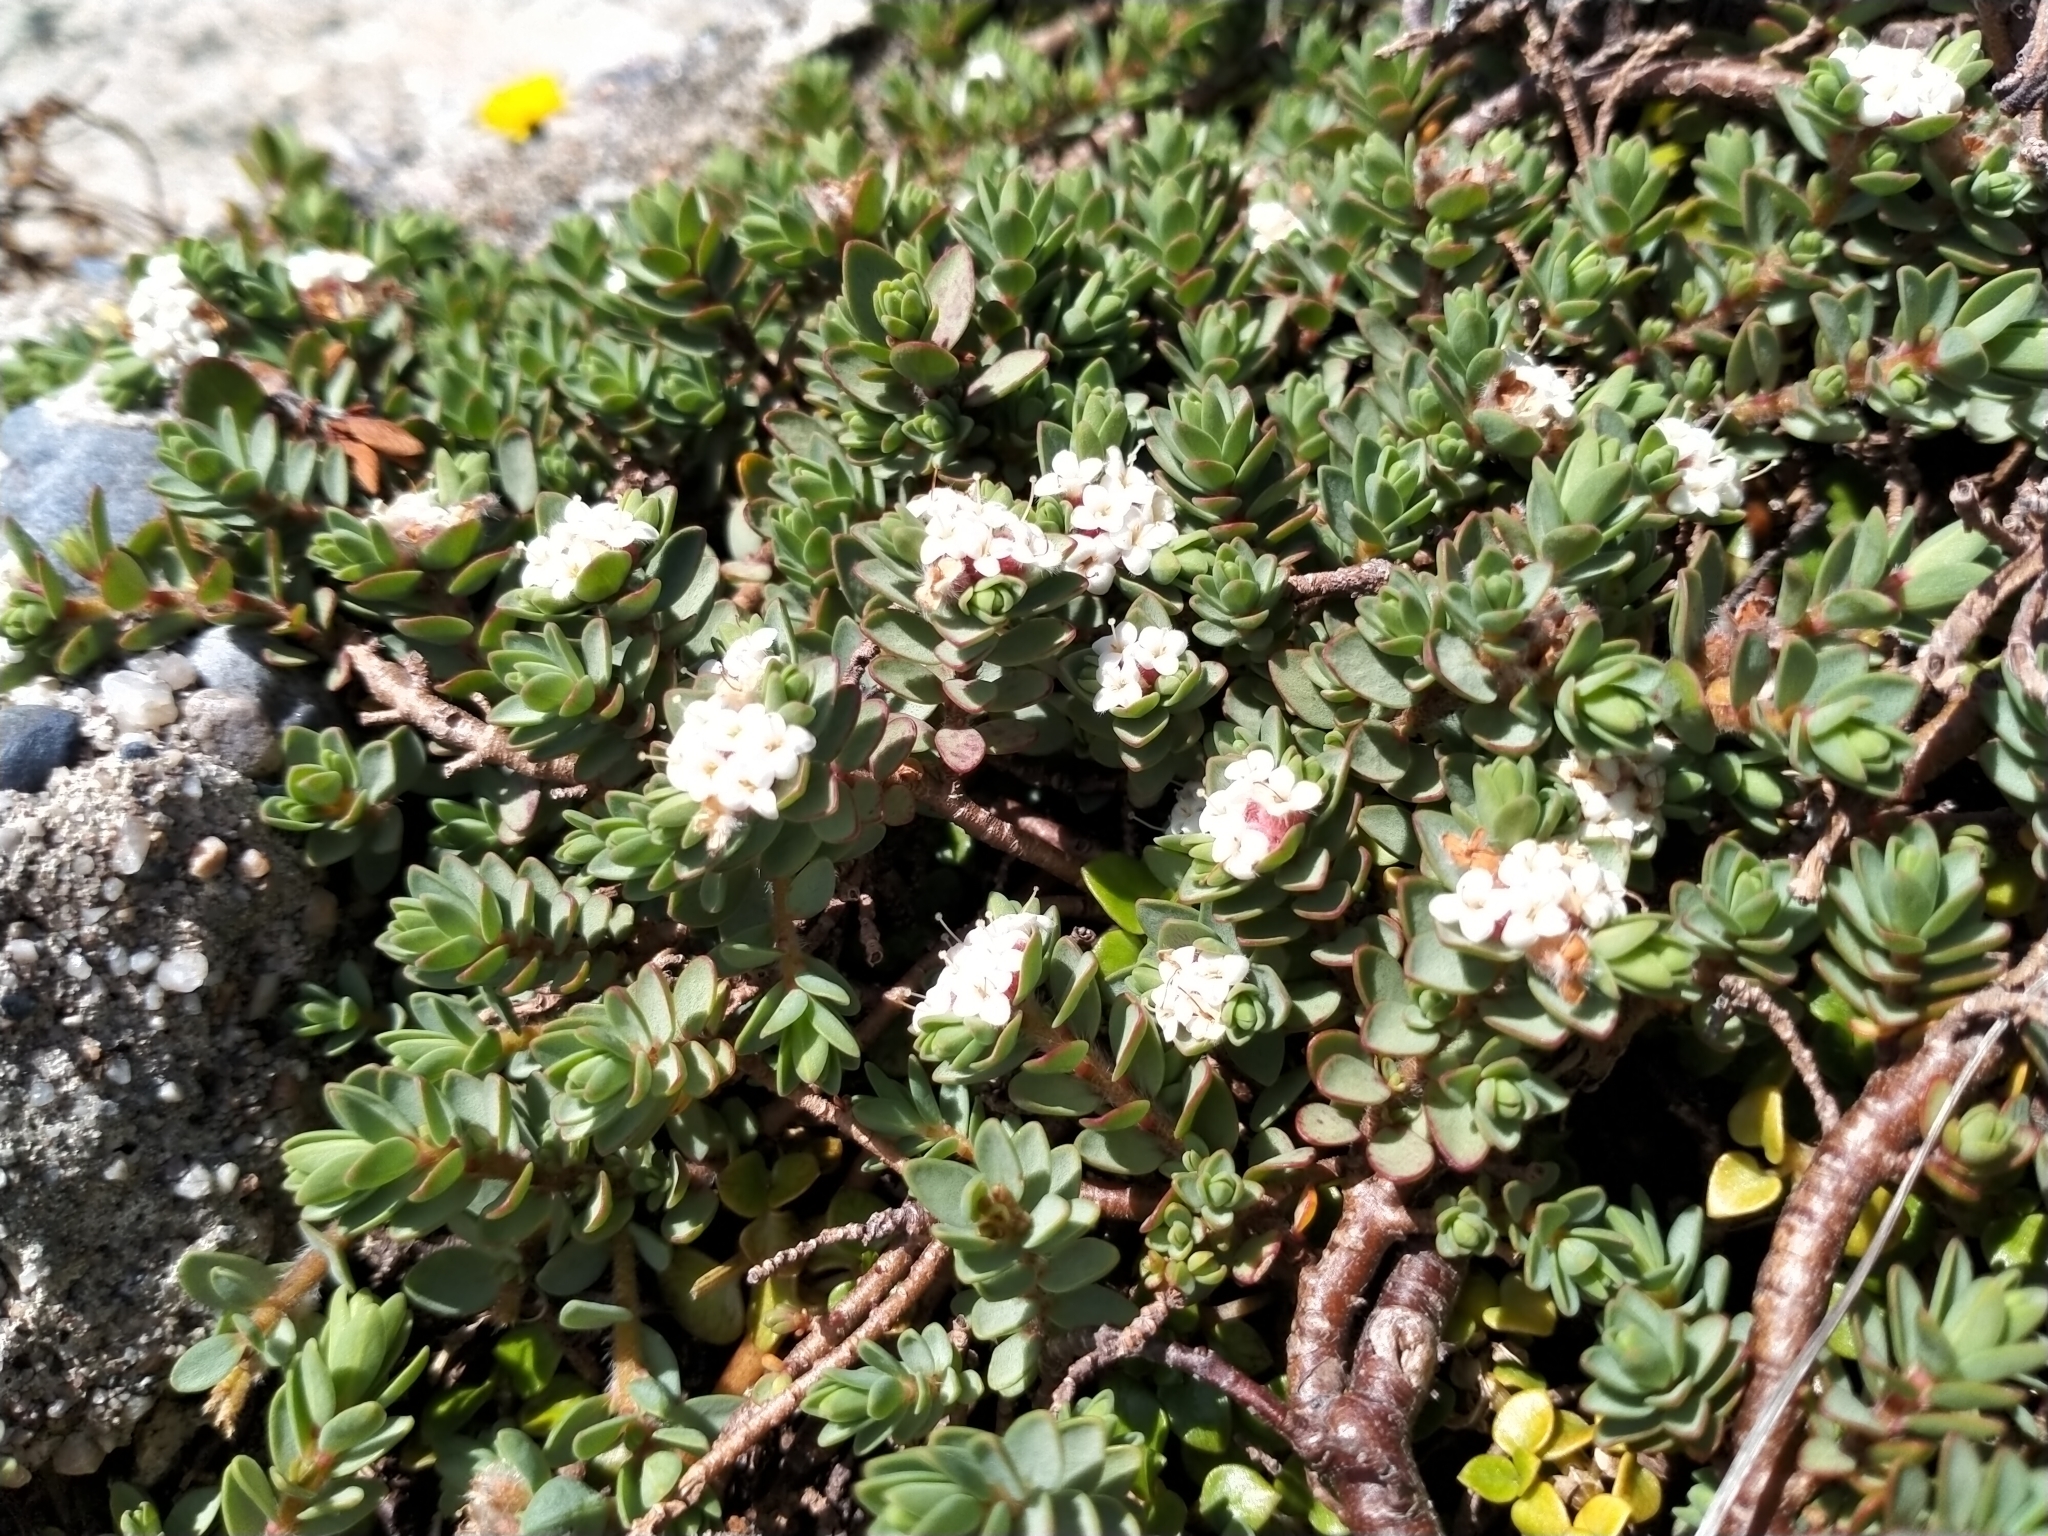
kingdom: Plantae
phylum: Tracheophyta
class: Magnoliopsida
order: Malvales
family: Thymelaeaceae
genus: Pimelea
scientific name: Pimelea prostrata
